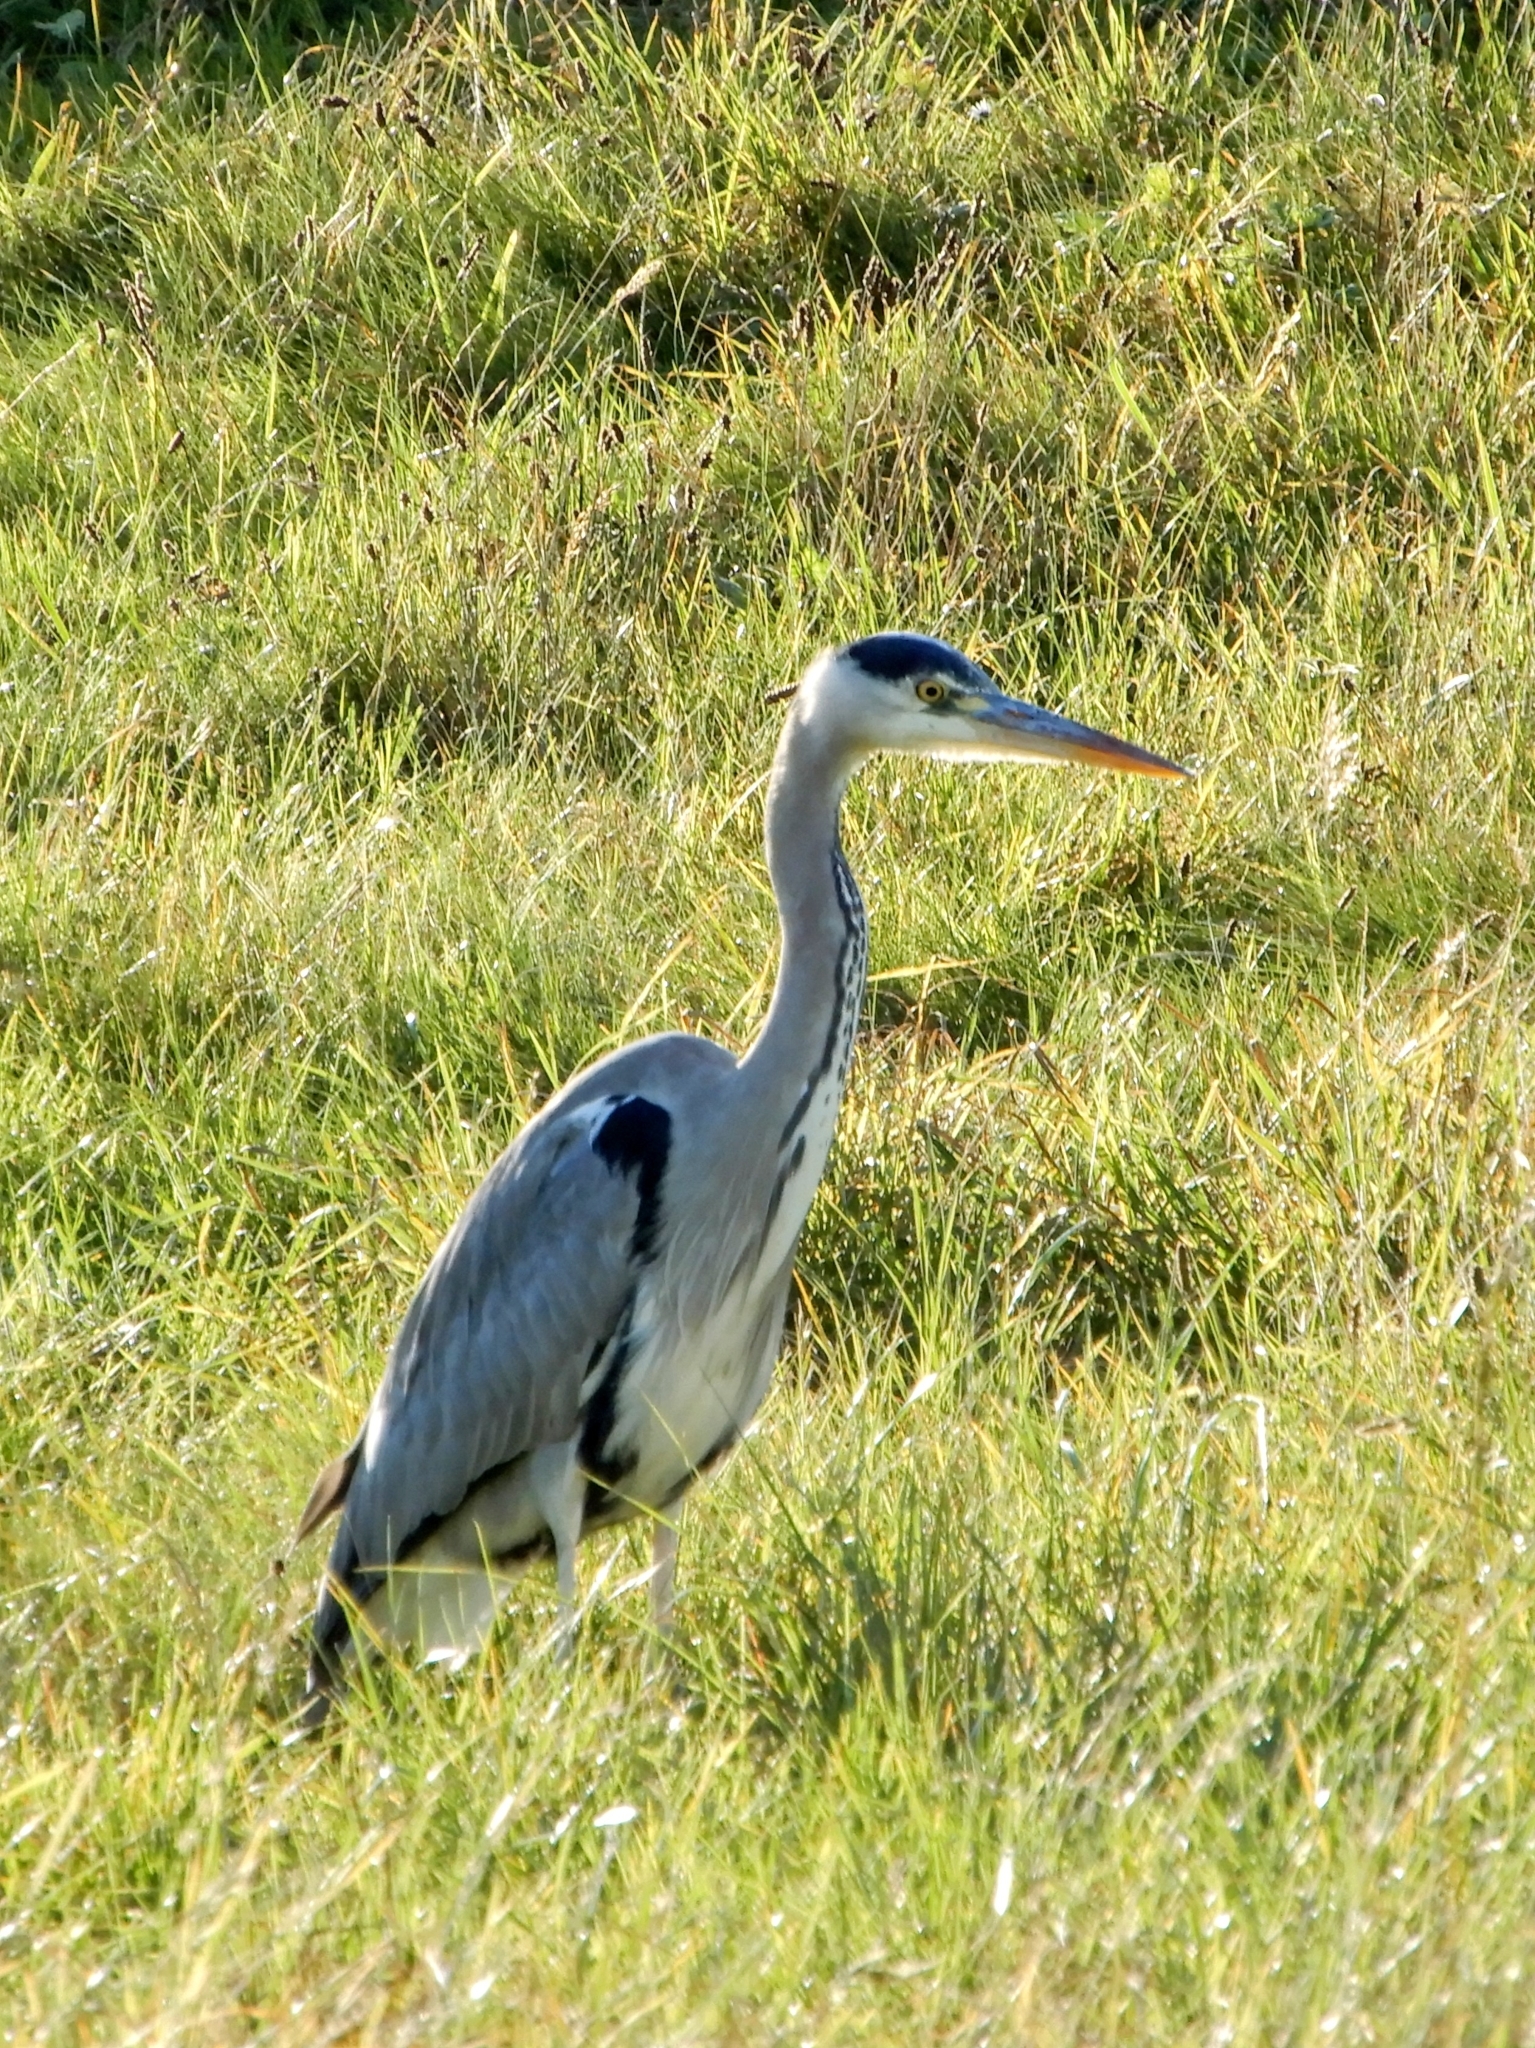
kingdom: Animalia
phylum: Chordata
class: Aves
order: Pelecaniformes
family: Ardeidae
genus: Ardea
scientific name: Ardea cinerea
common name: Grey heron
